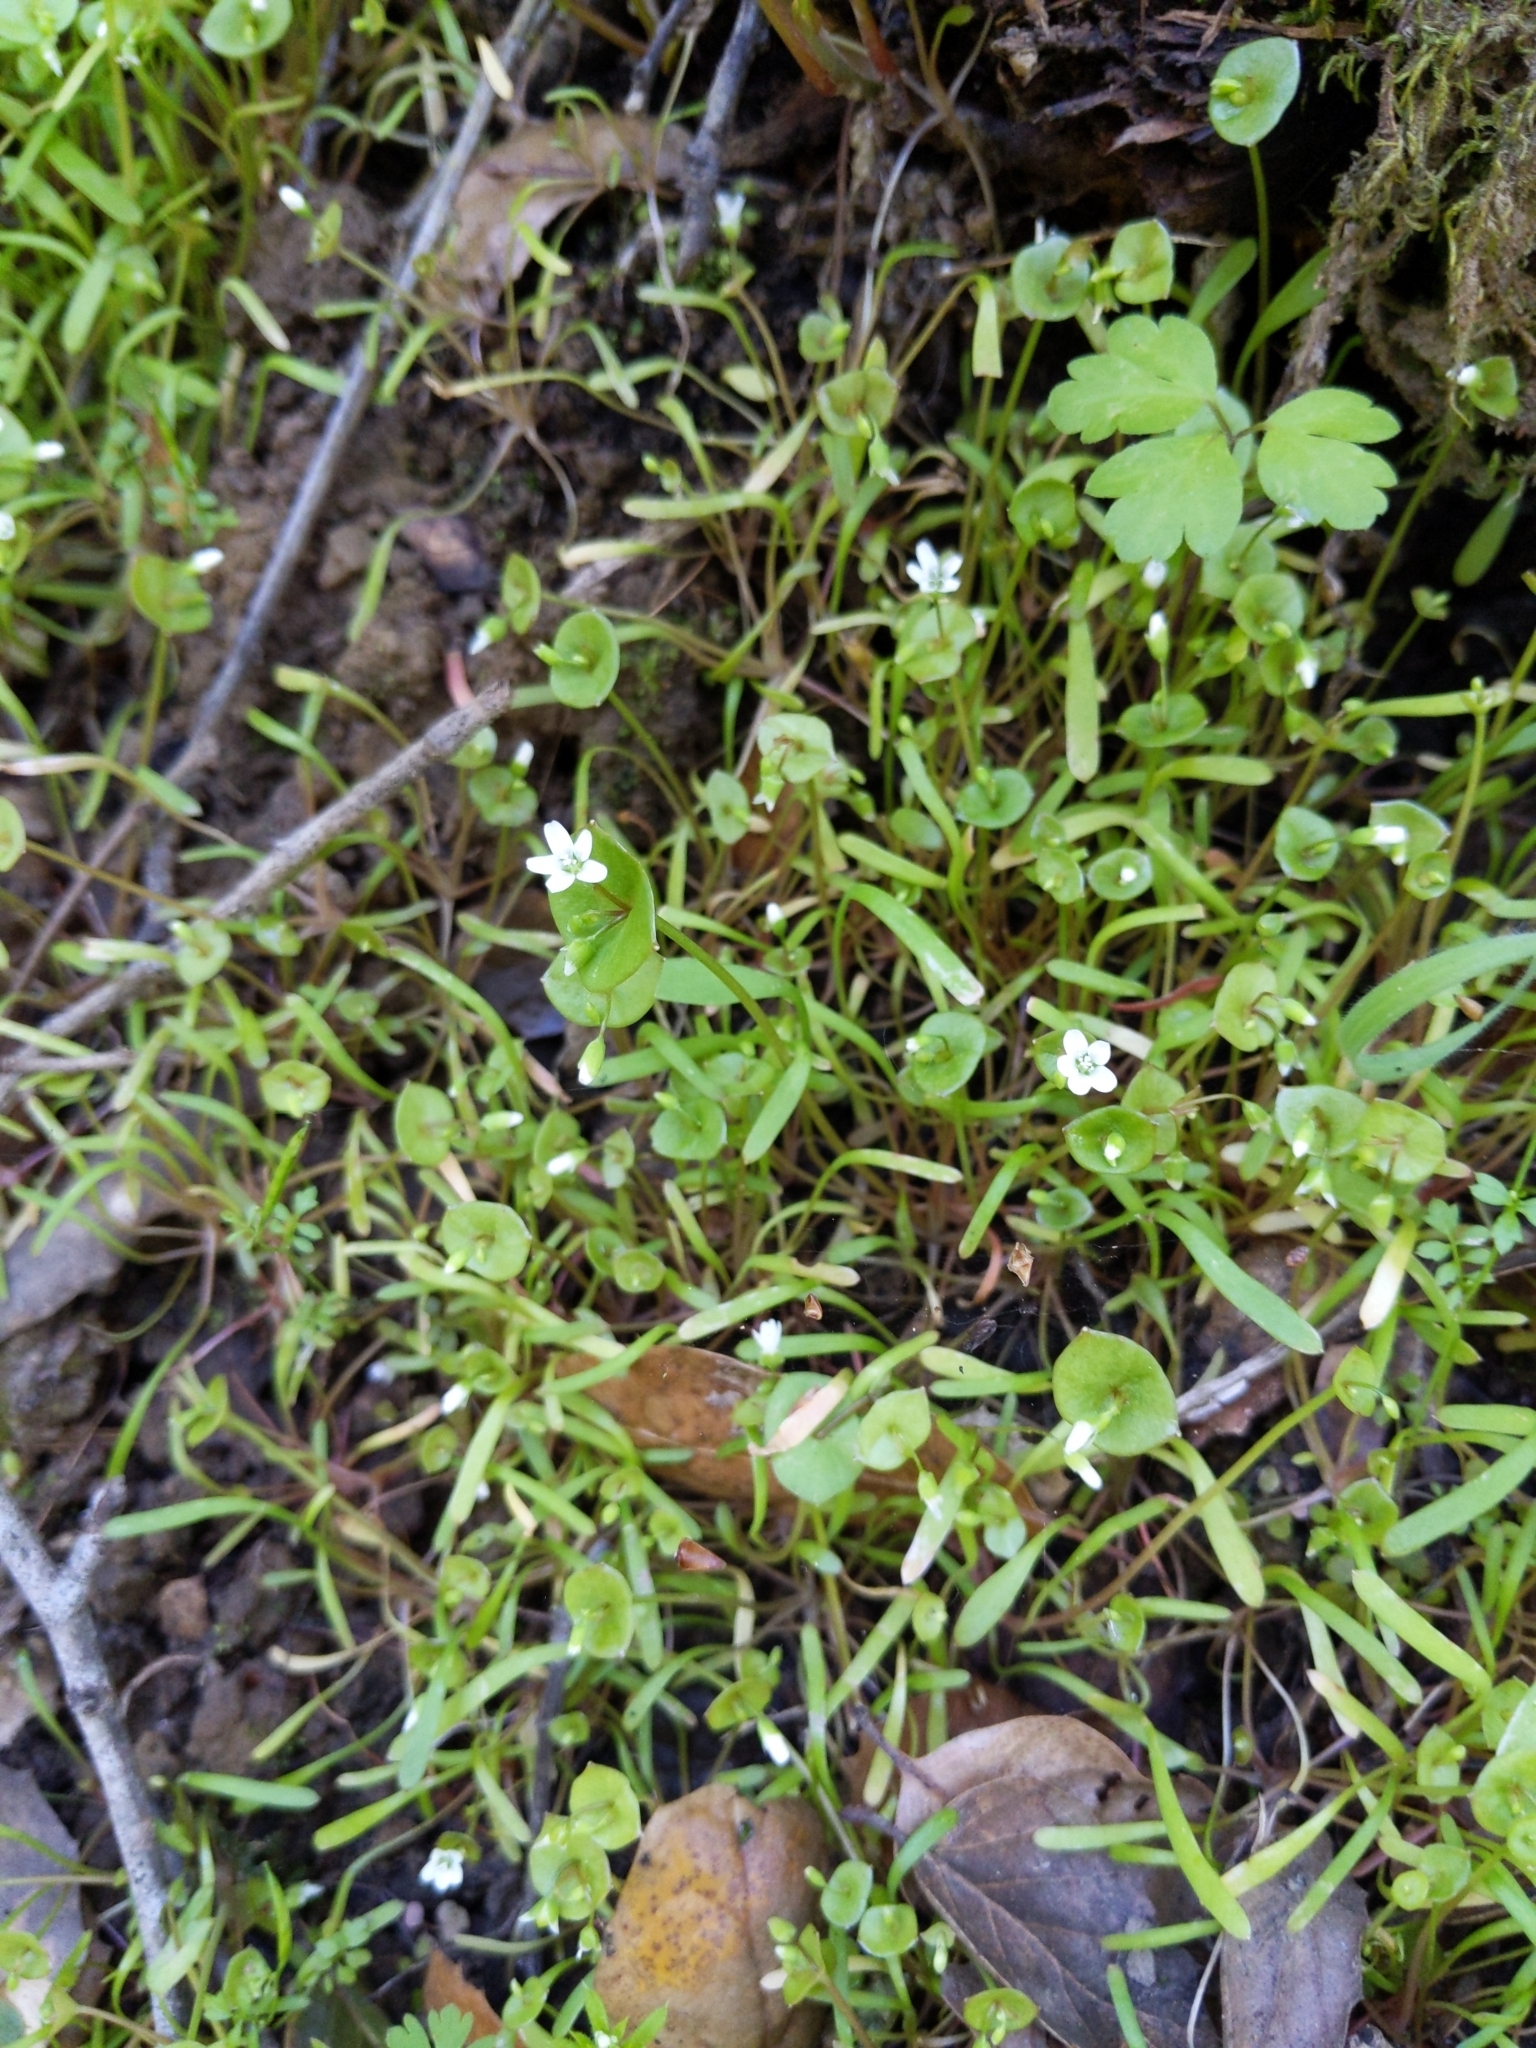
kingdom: Plantae
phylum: Tracheophyta
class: Magnoliopsida
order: Caryophyllales
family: Montiaceae
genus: Claytonia
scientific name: Claytonia parviflora
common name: Indian-lettuce
